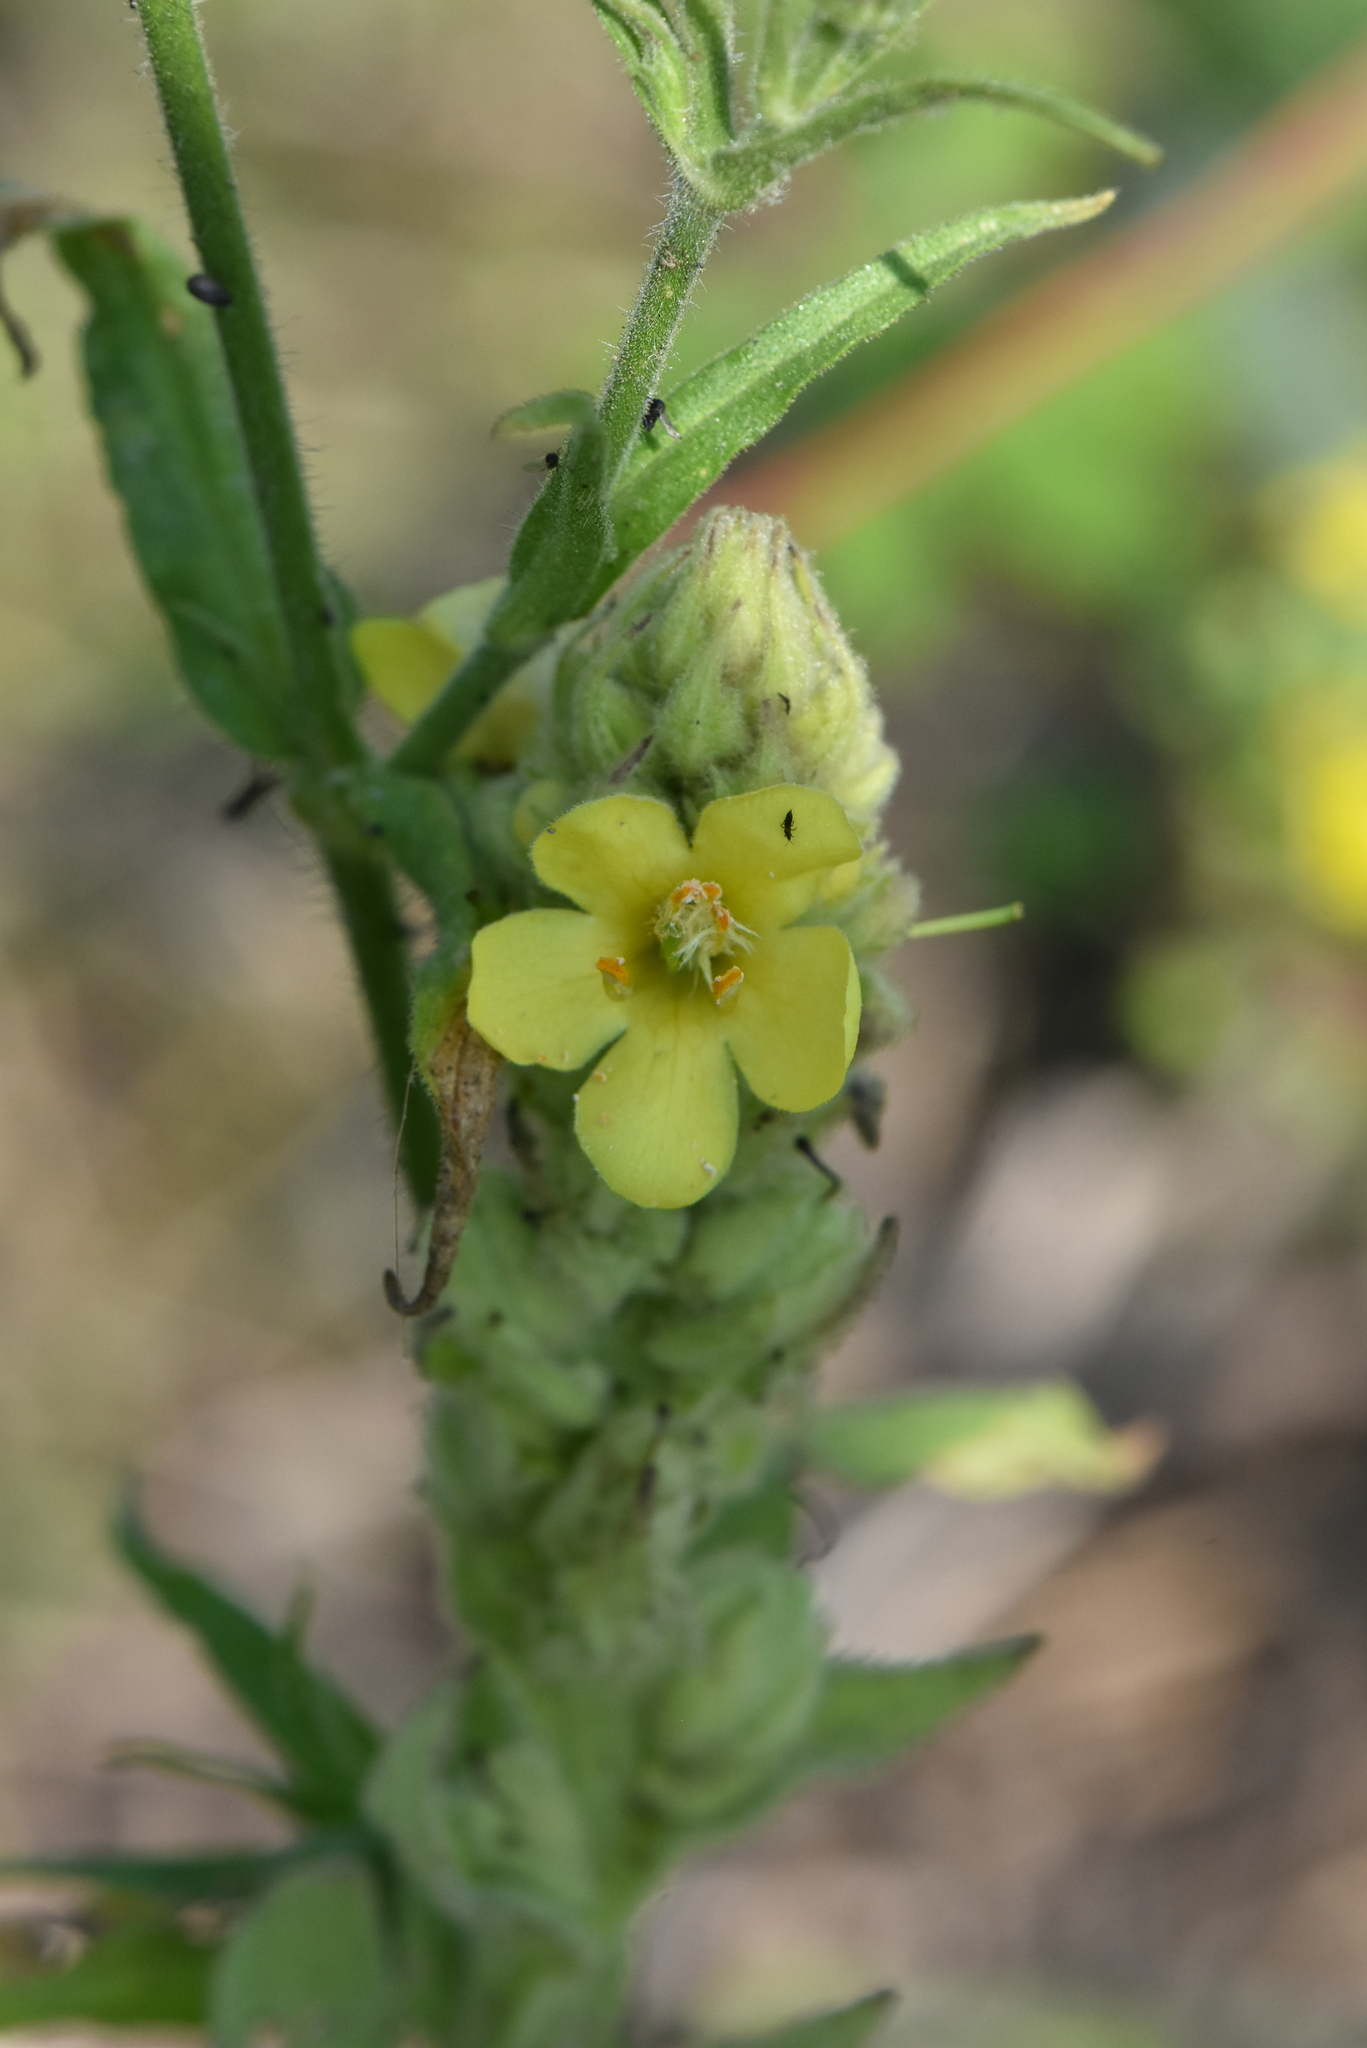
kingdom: Plantae
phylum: Tracheophyta
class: Magnoliopsida
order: Lamiales
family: Scrophulariaceae
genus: Verbascum
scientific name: Verbascum thapsus
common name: Common mullein
